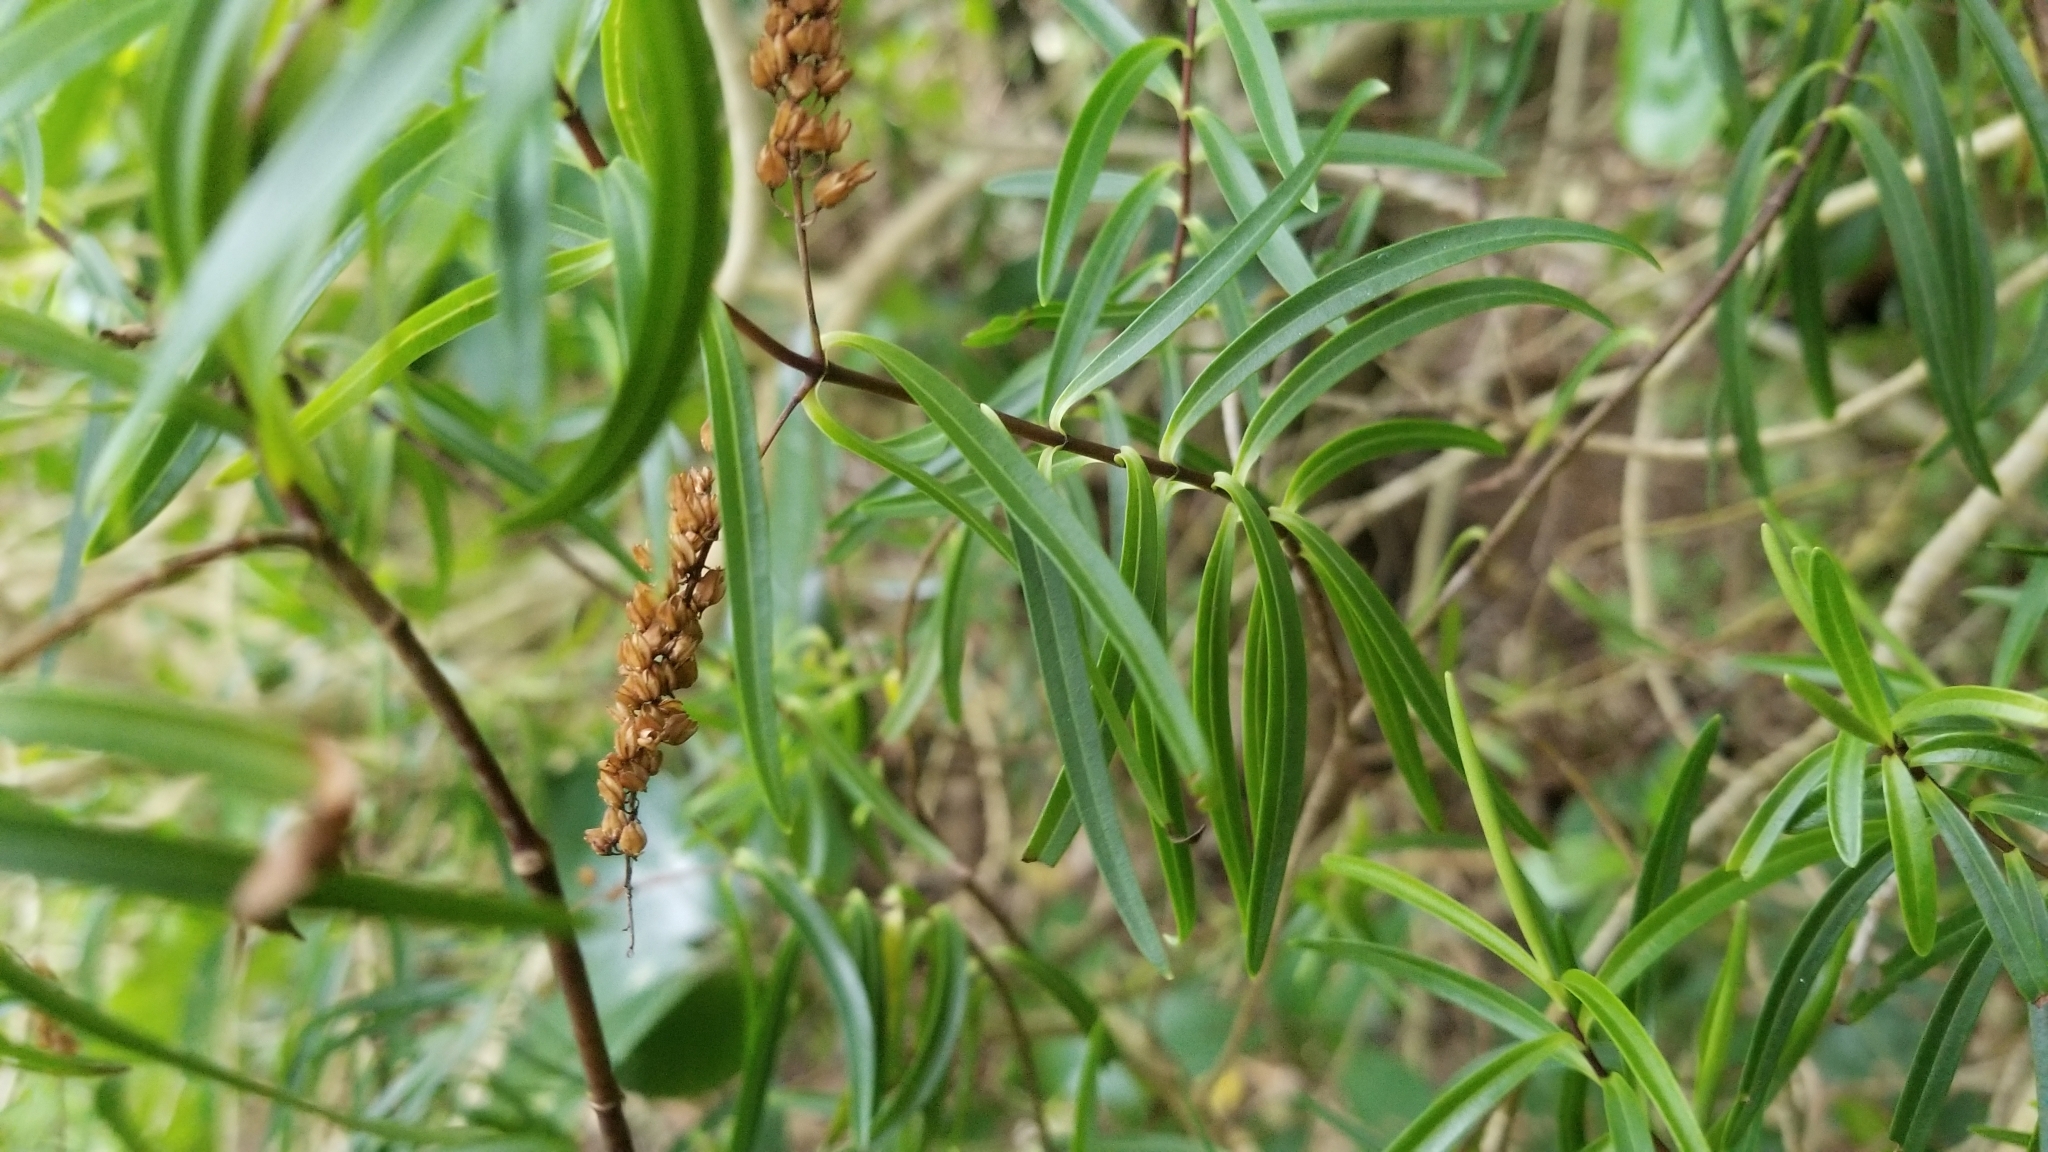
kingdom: Plantae
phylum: Tracheophyta
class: Magnoliopsida
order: Lamiales
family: Plantaginaceae
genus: Veronica
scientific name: Veronica stenophylla
